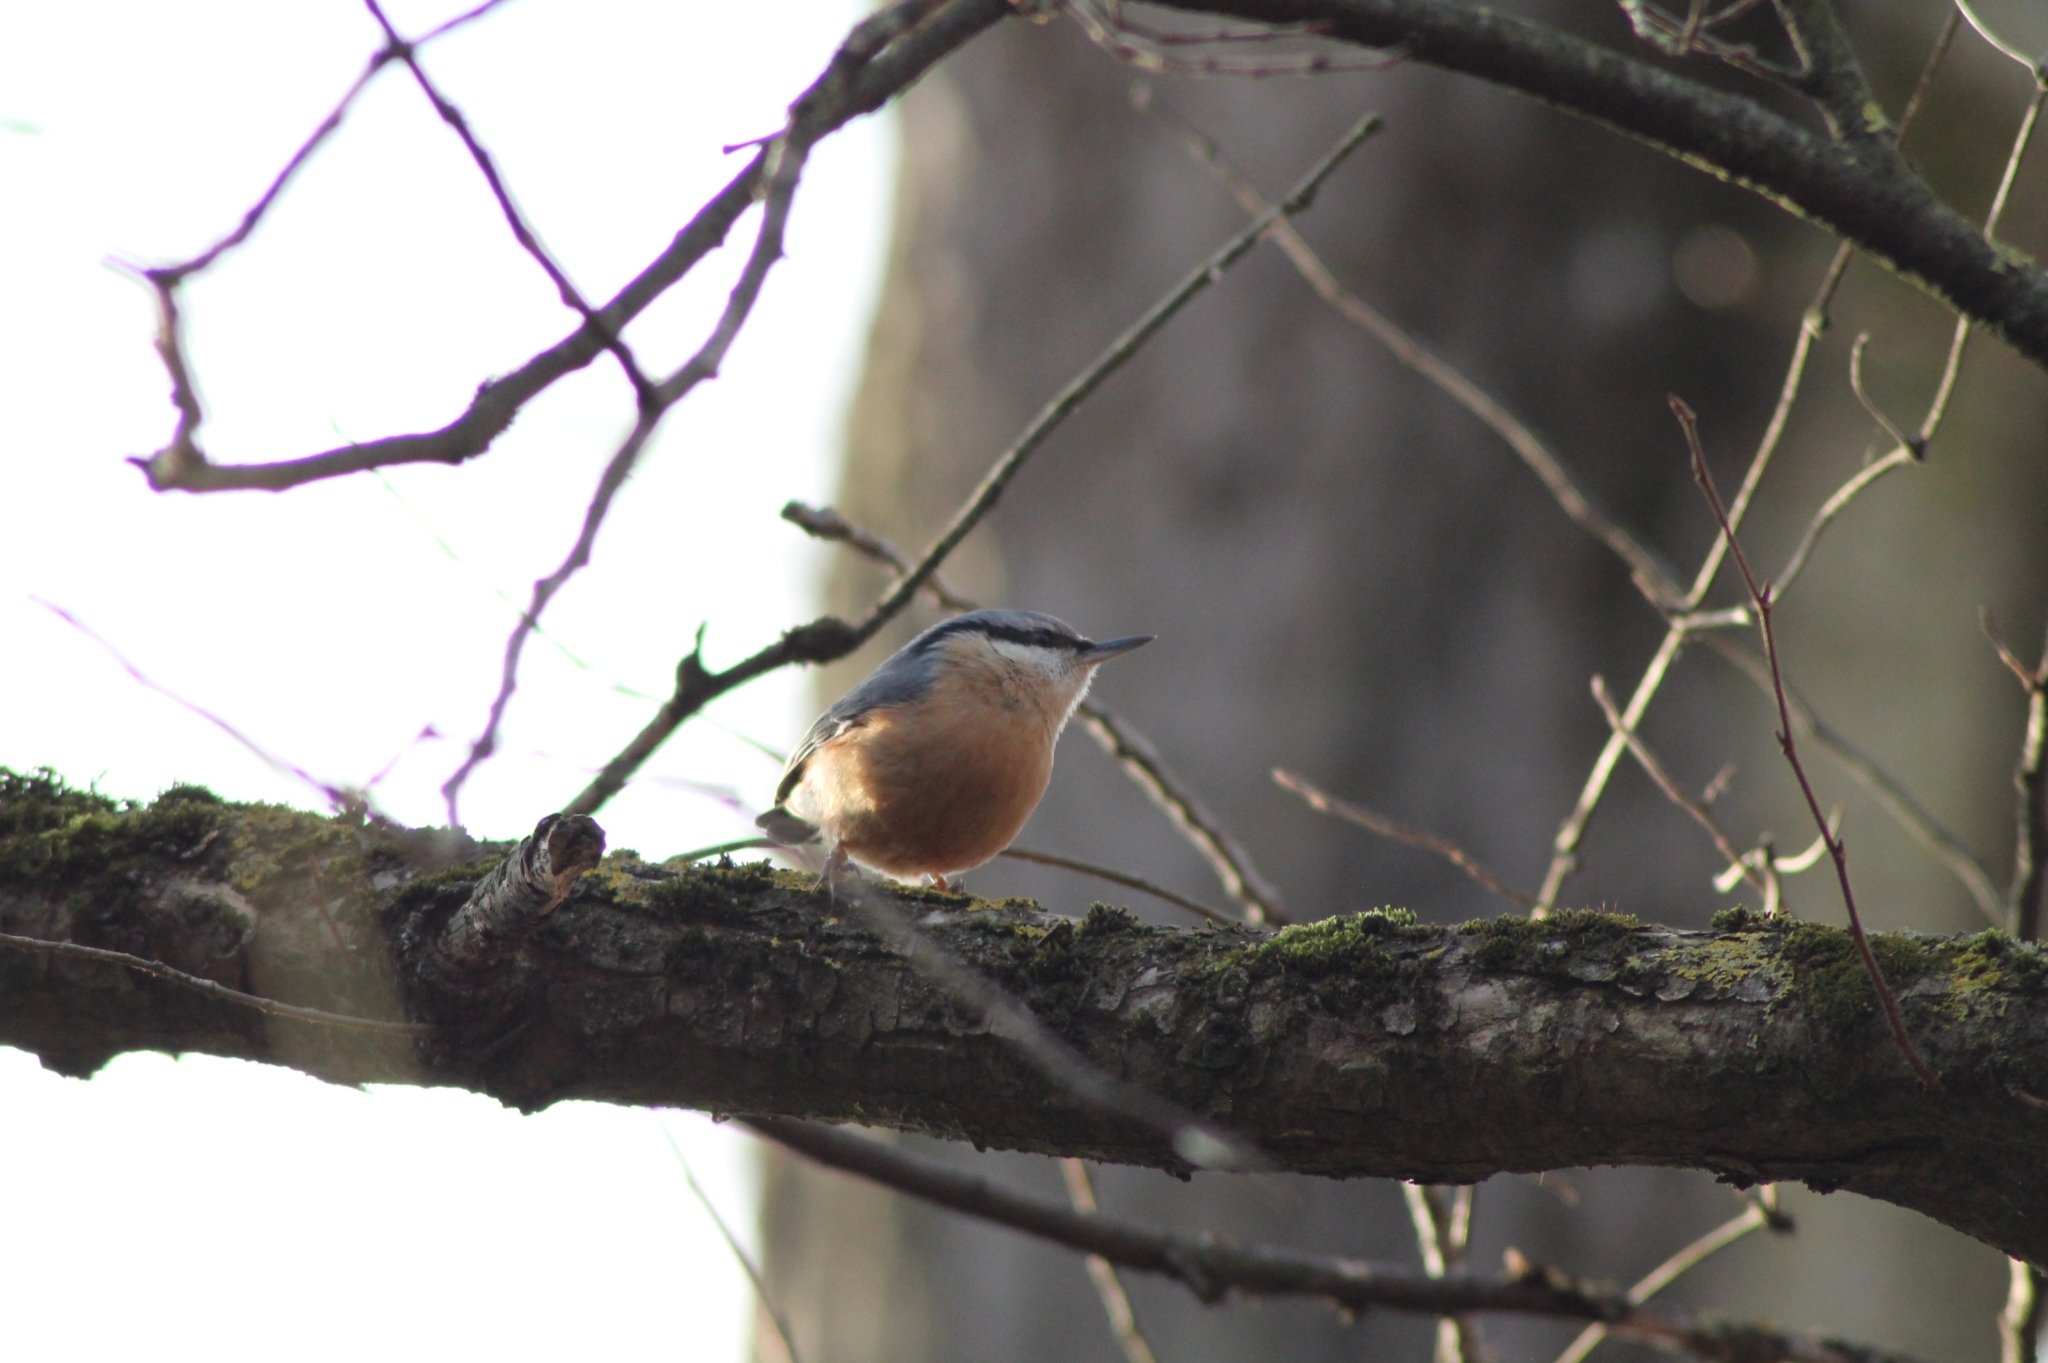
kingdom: Animalia
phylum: Chordata
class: Aves
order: Passeriformes
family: Sittidae
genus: Sitta
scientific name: Sitta europaea
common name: Eurasian nuthatch
